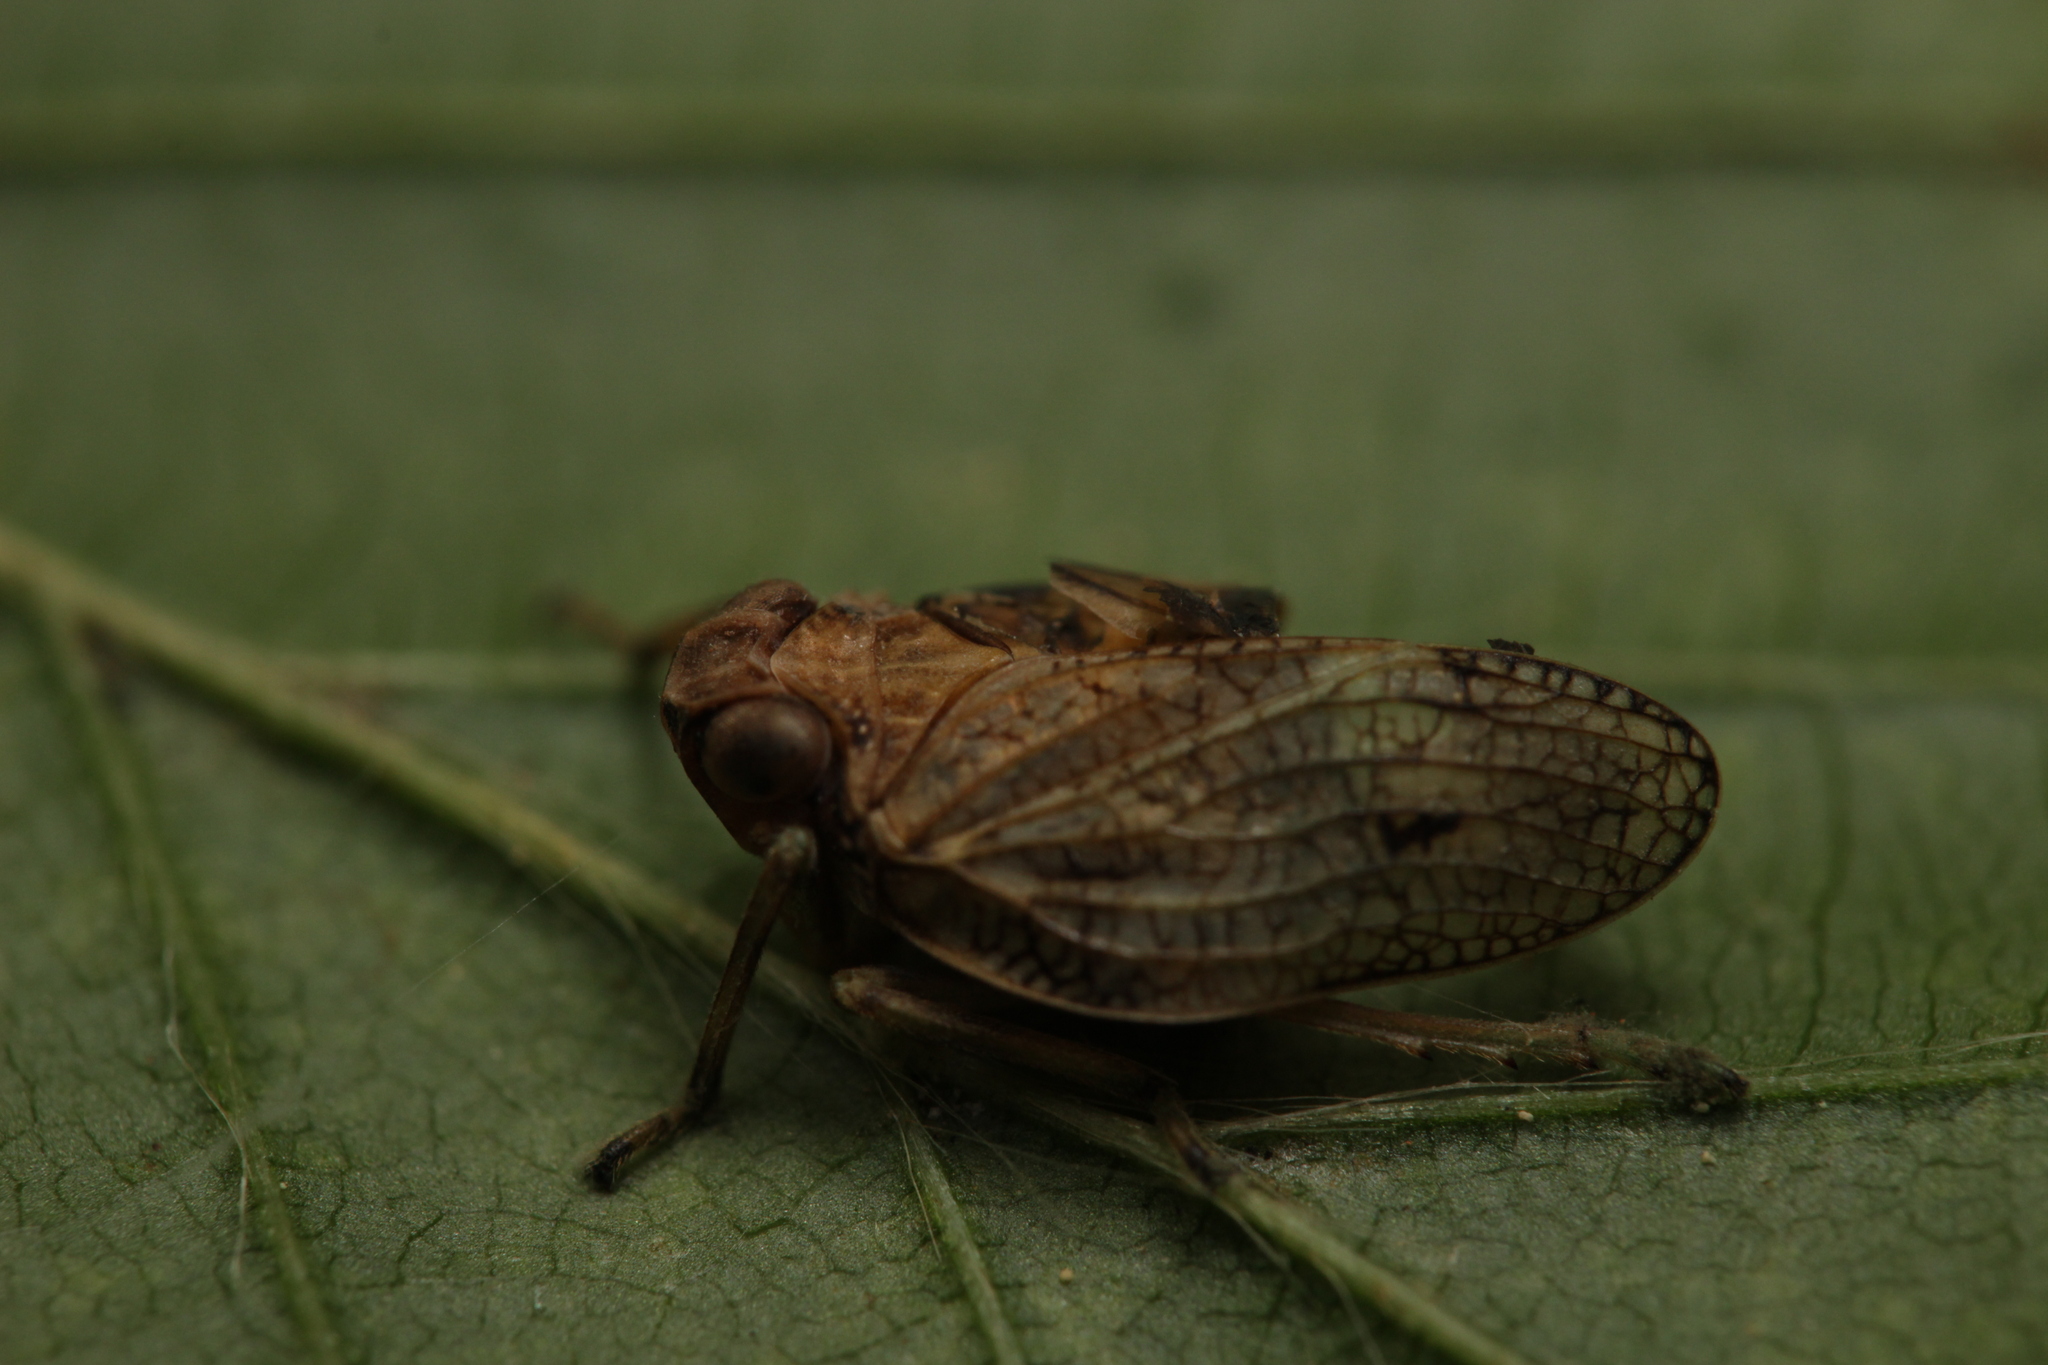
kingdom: Animalia
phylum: Arthropoda
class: Insecta
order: Hemiptera
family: Issidae
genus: Issus
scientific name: Issus coleoptratus
